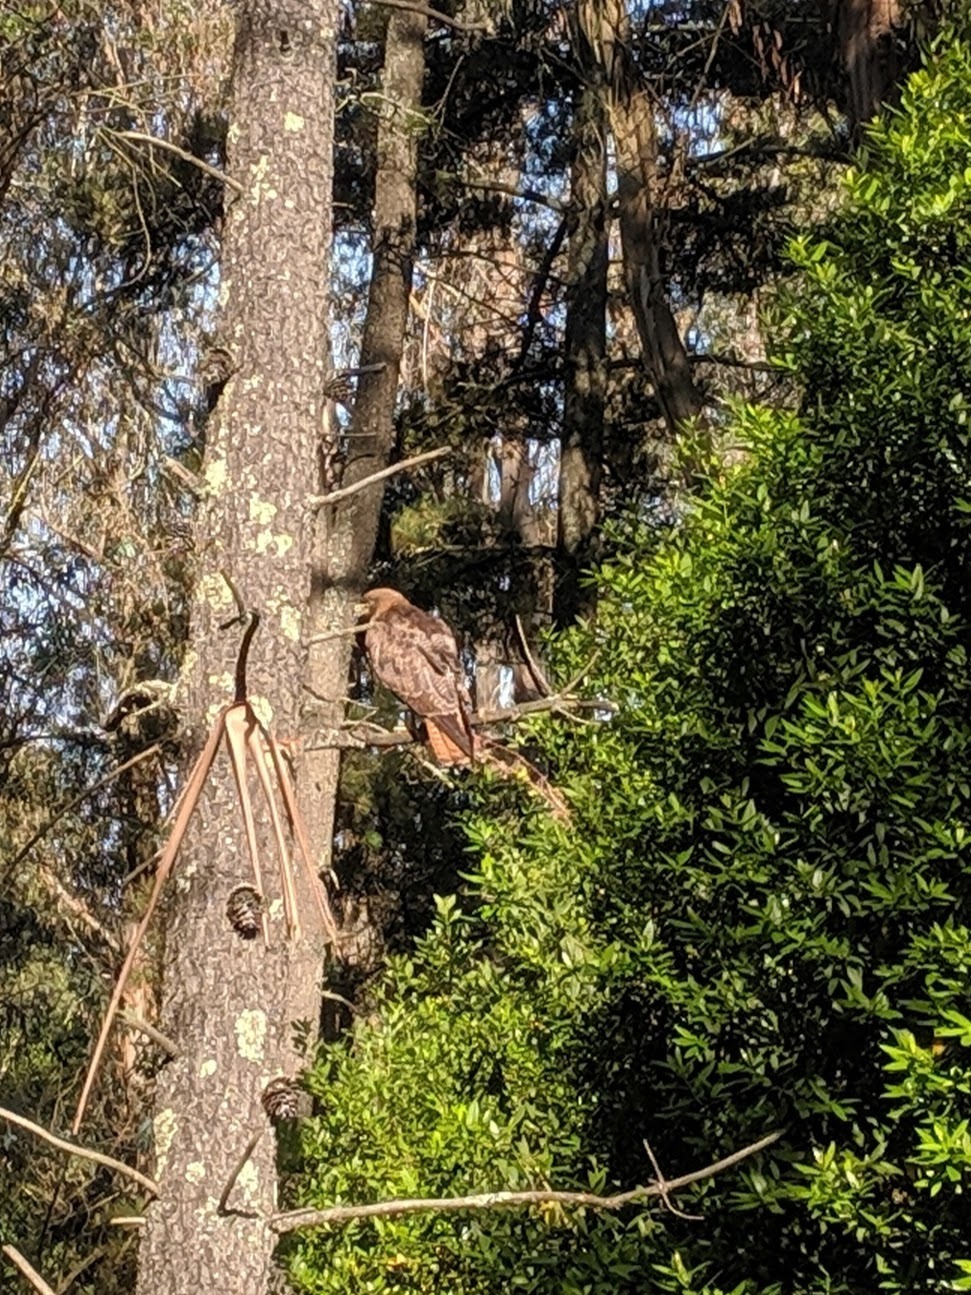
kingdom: Animalia
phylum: Chordata
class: Aves
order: Accipitriformes
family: Accipitridae
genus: Buteo
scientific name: Buteo jamaicensis
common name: Red-tailed hawk
